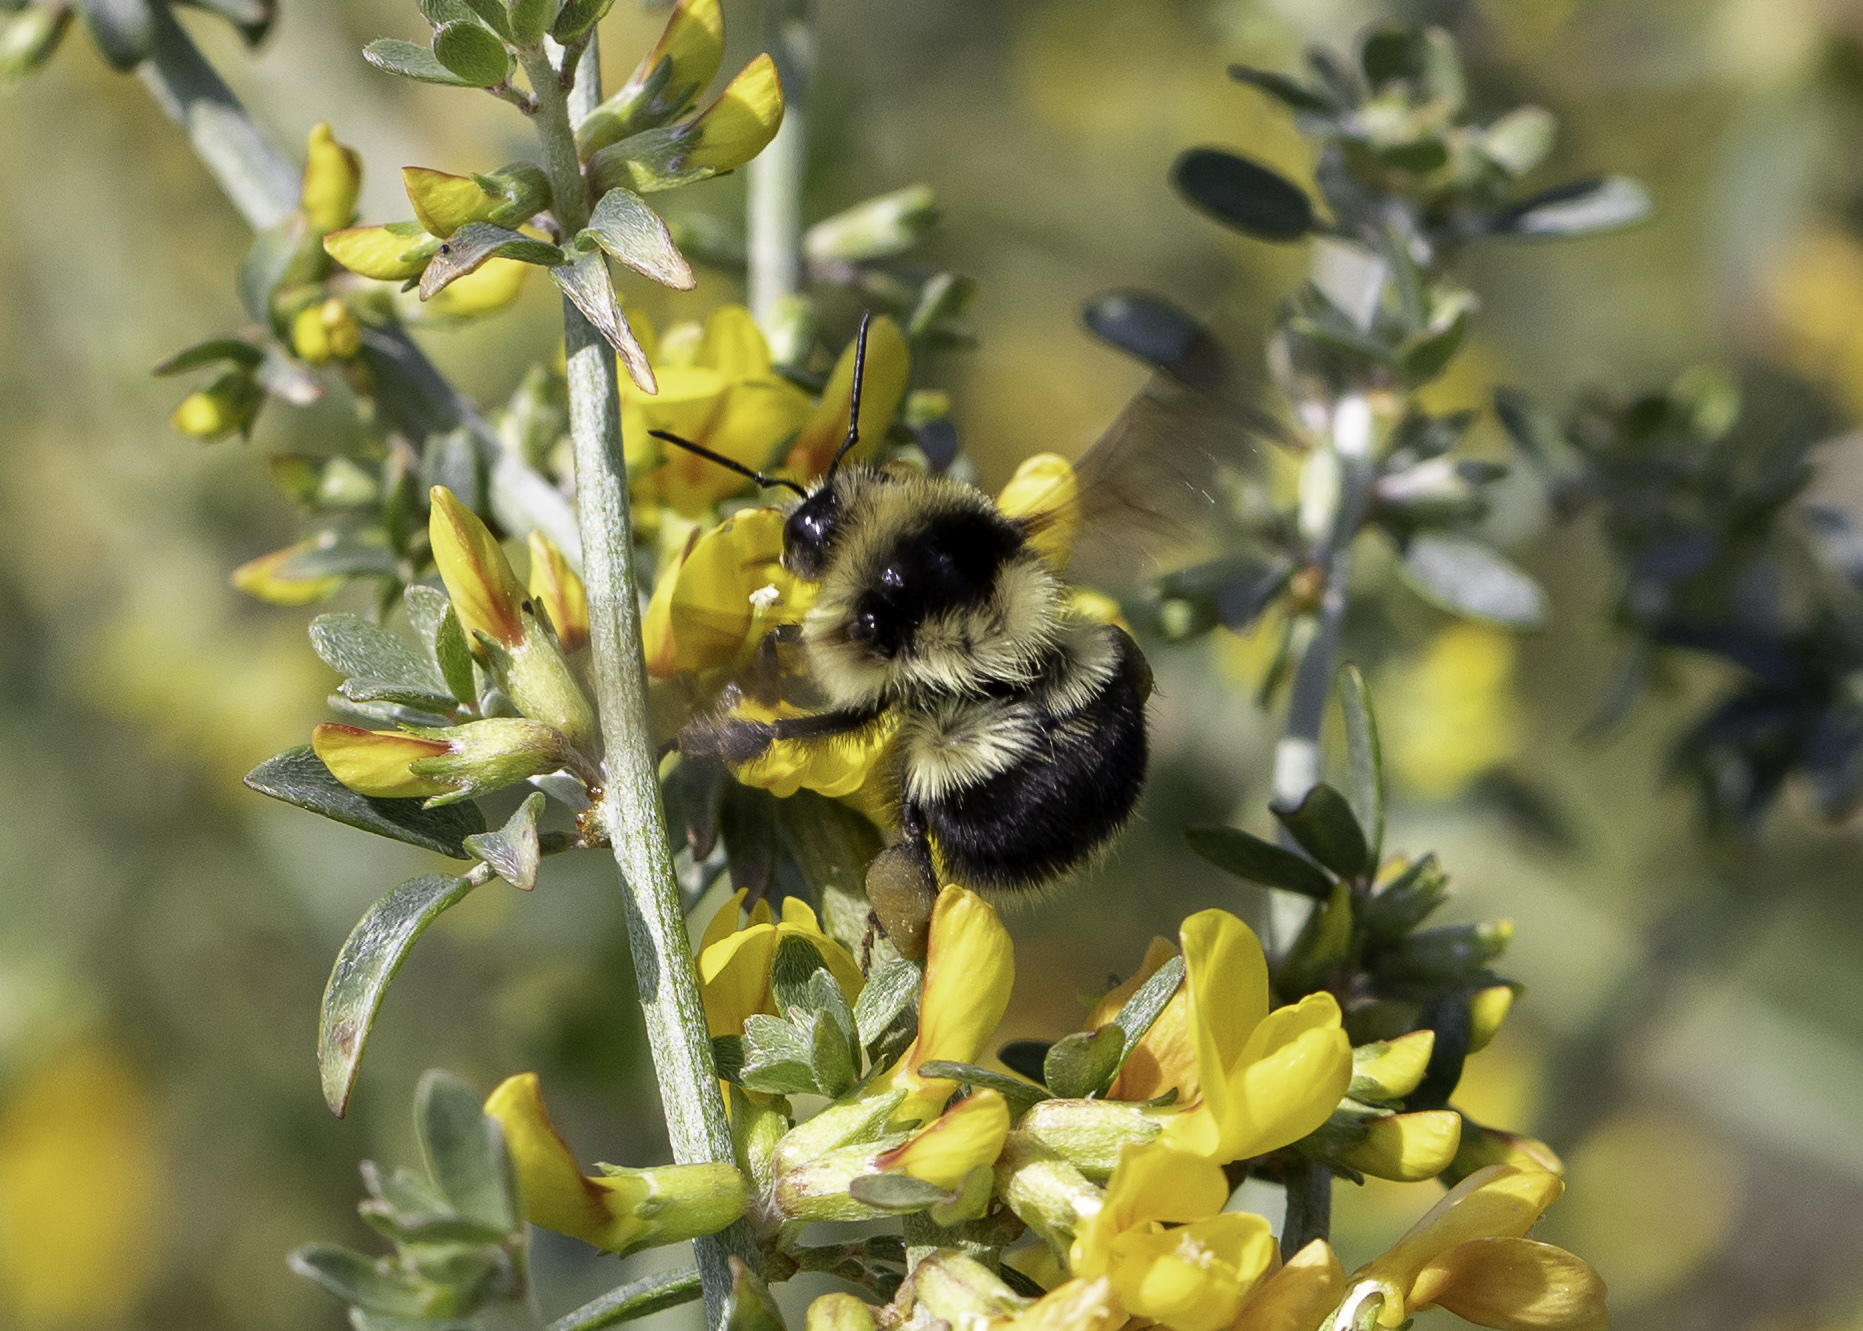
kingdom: Animalia
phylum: Arthropoda
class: Insecta
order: Hymenoptera
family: Apidae
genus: Bombus
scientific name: Bombus melanopygus
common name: Black tail bumble bee
